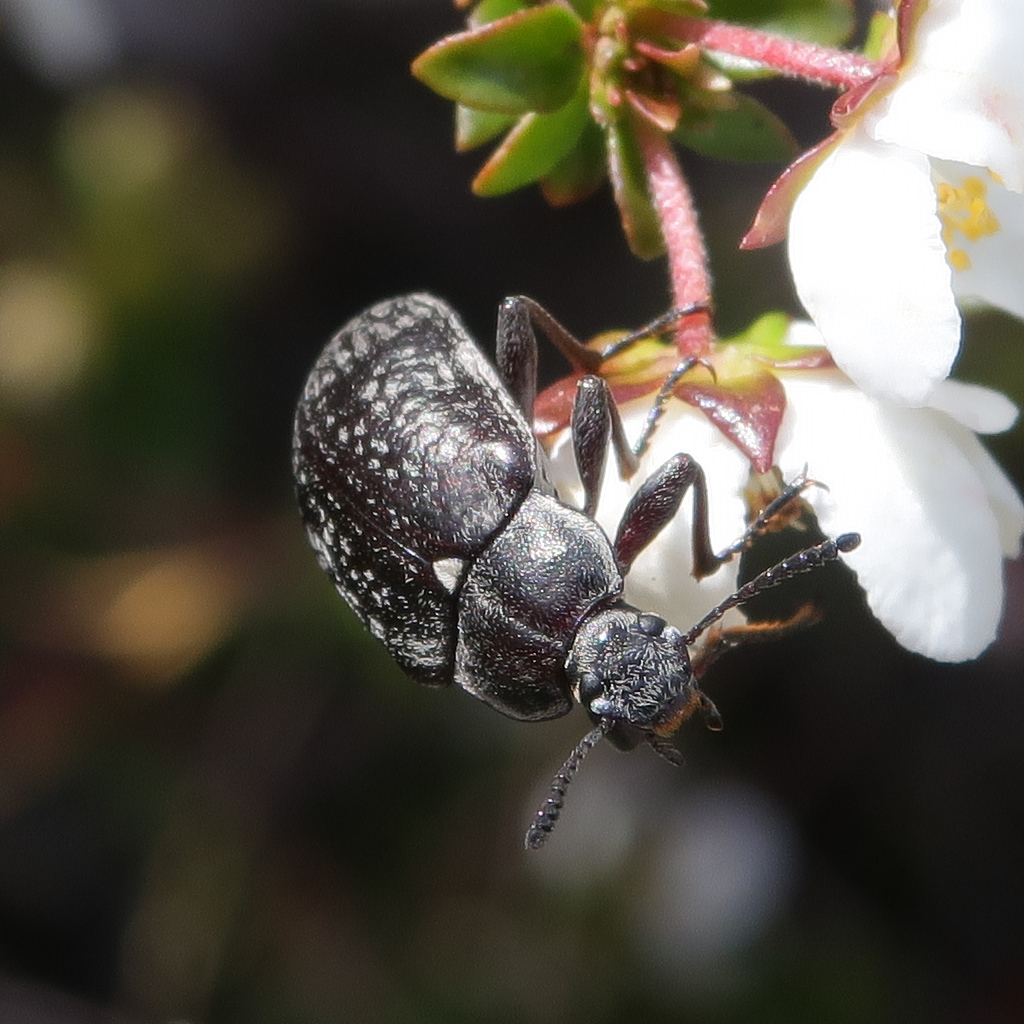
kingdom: Animalia
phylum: Arthropoda
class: Insecta
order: Coleoptera
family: Tenebrionidae
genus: Pachycoelia
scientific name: Pachycoelia
